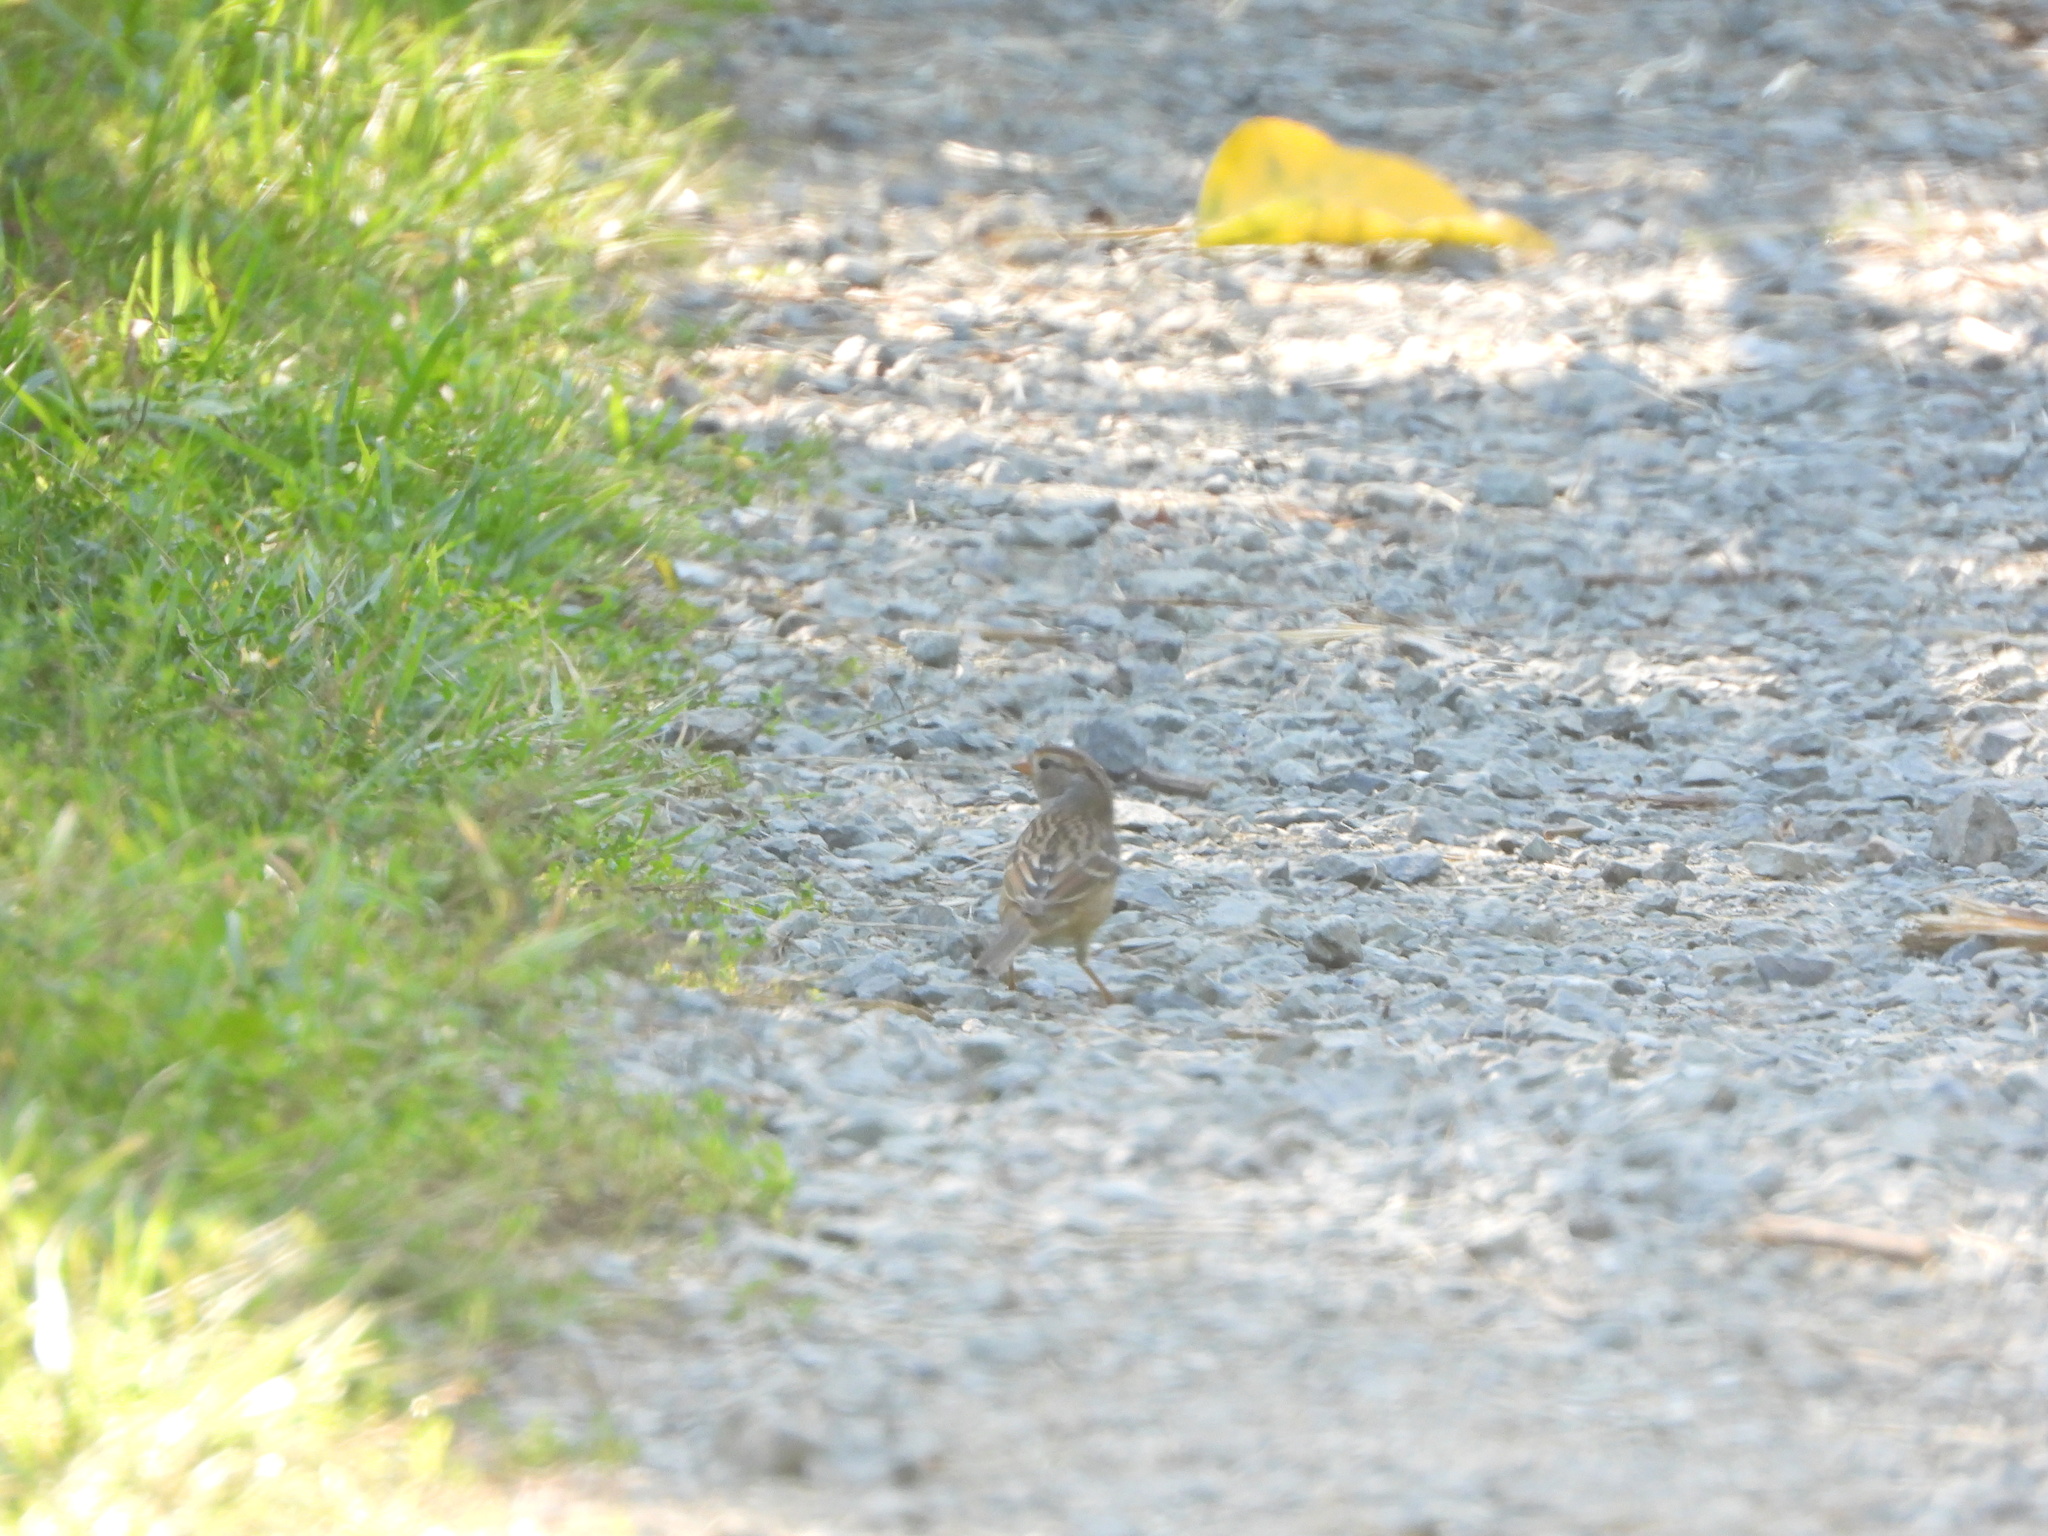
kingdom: Animalia
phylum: Chordata
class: Aves
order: Passeriformes
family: Passerellidae
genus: Zonotrichia
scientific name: Zonotrichia leucophrys
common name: White-crowned sparrow
